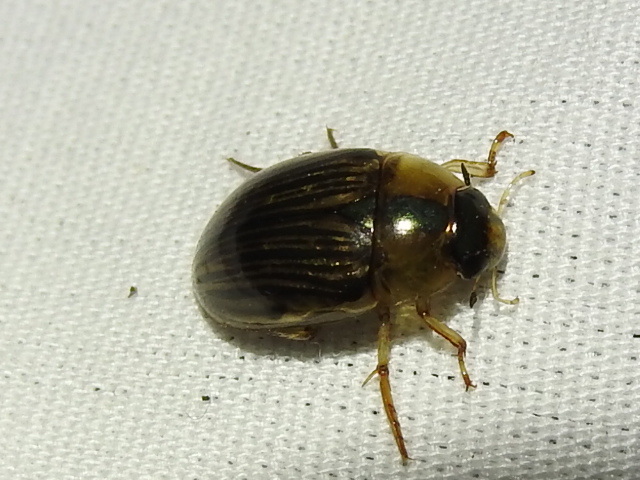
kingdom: Animalia
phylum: Arthropoda
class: Insecta
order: Coleoptera
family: Hydrophilidae
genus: Tropisternus
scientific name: Tropisternus collaris
